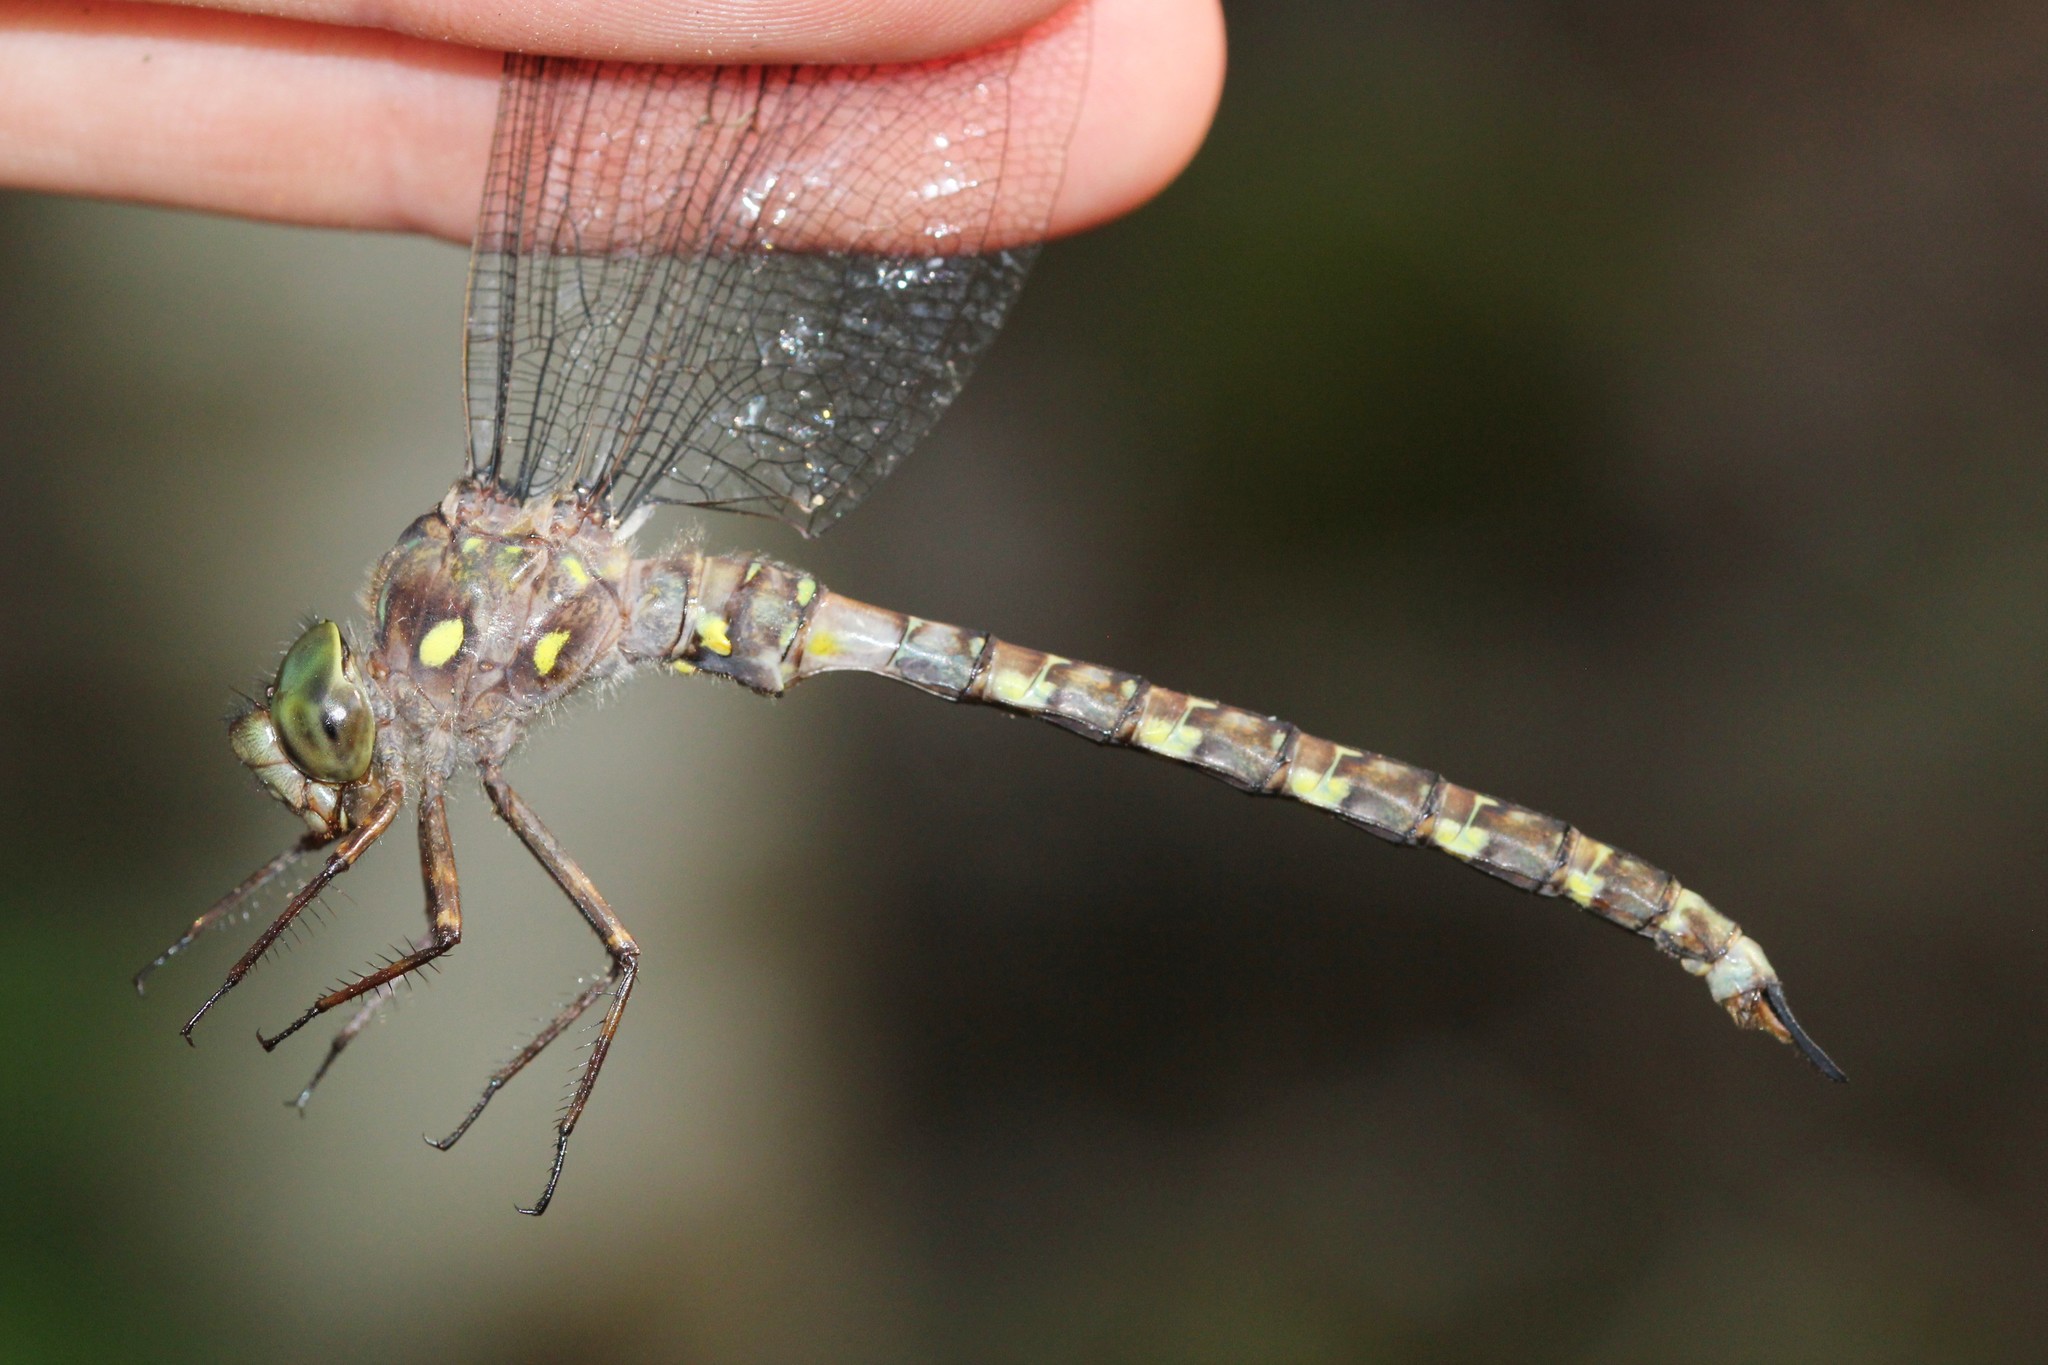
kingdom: Animalia
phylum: Arthropoda
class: Insecta
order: Odonata
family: Aeshnidae
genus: Boyeria
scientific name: Boyeria grafiana
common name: Ocellated darner
